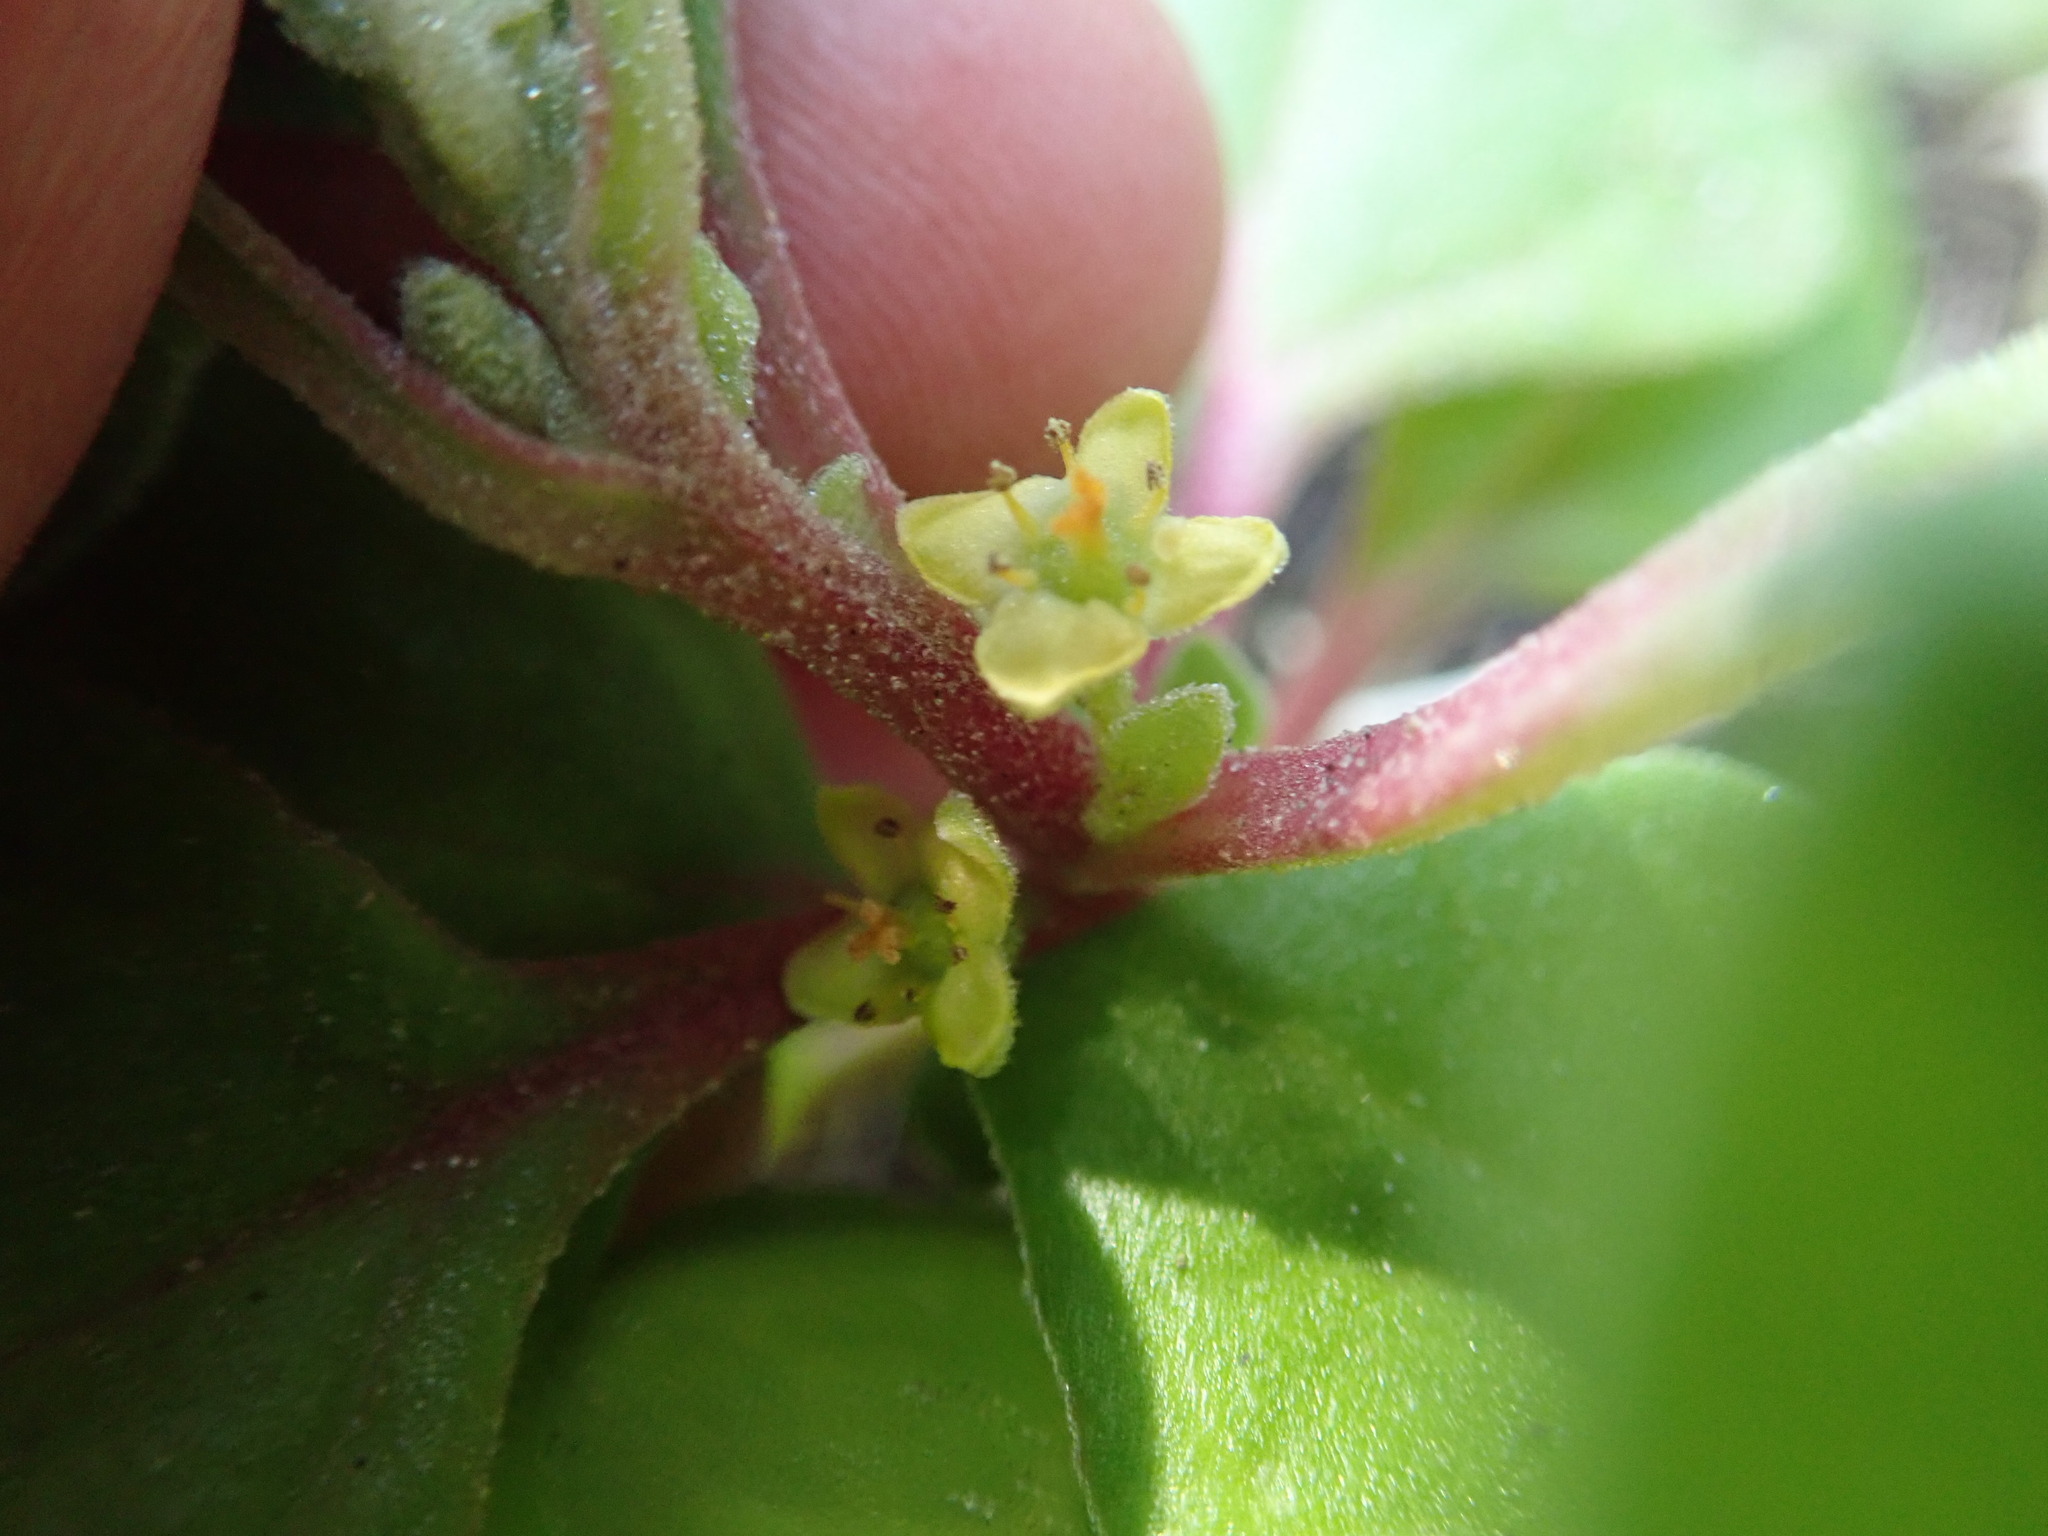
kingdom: Plantae
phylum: Tracheophyta
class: Magnoliopsida
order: Caryophyllales
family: Aizoaceae
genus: Tetragonia
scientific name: Tetragonia implexicoma
